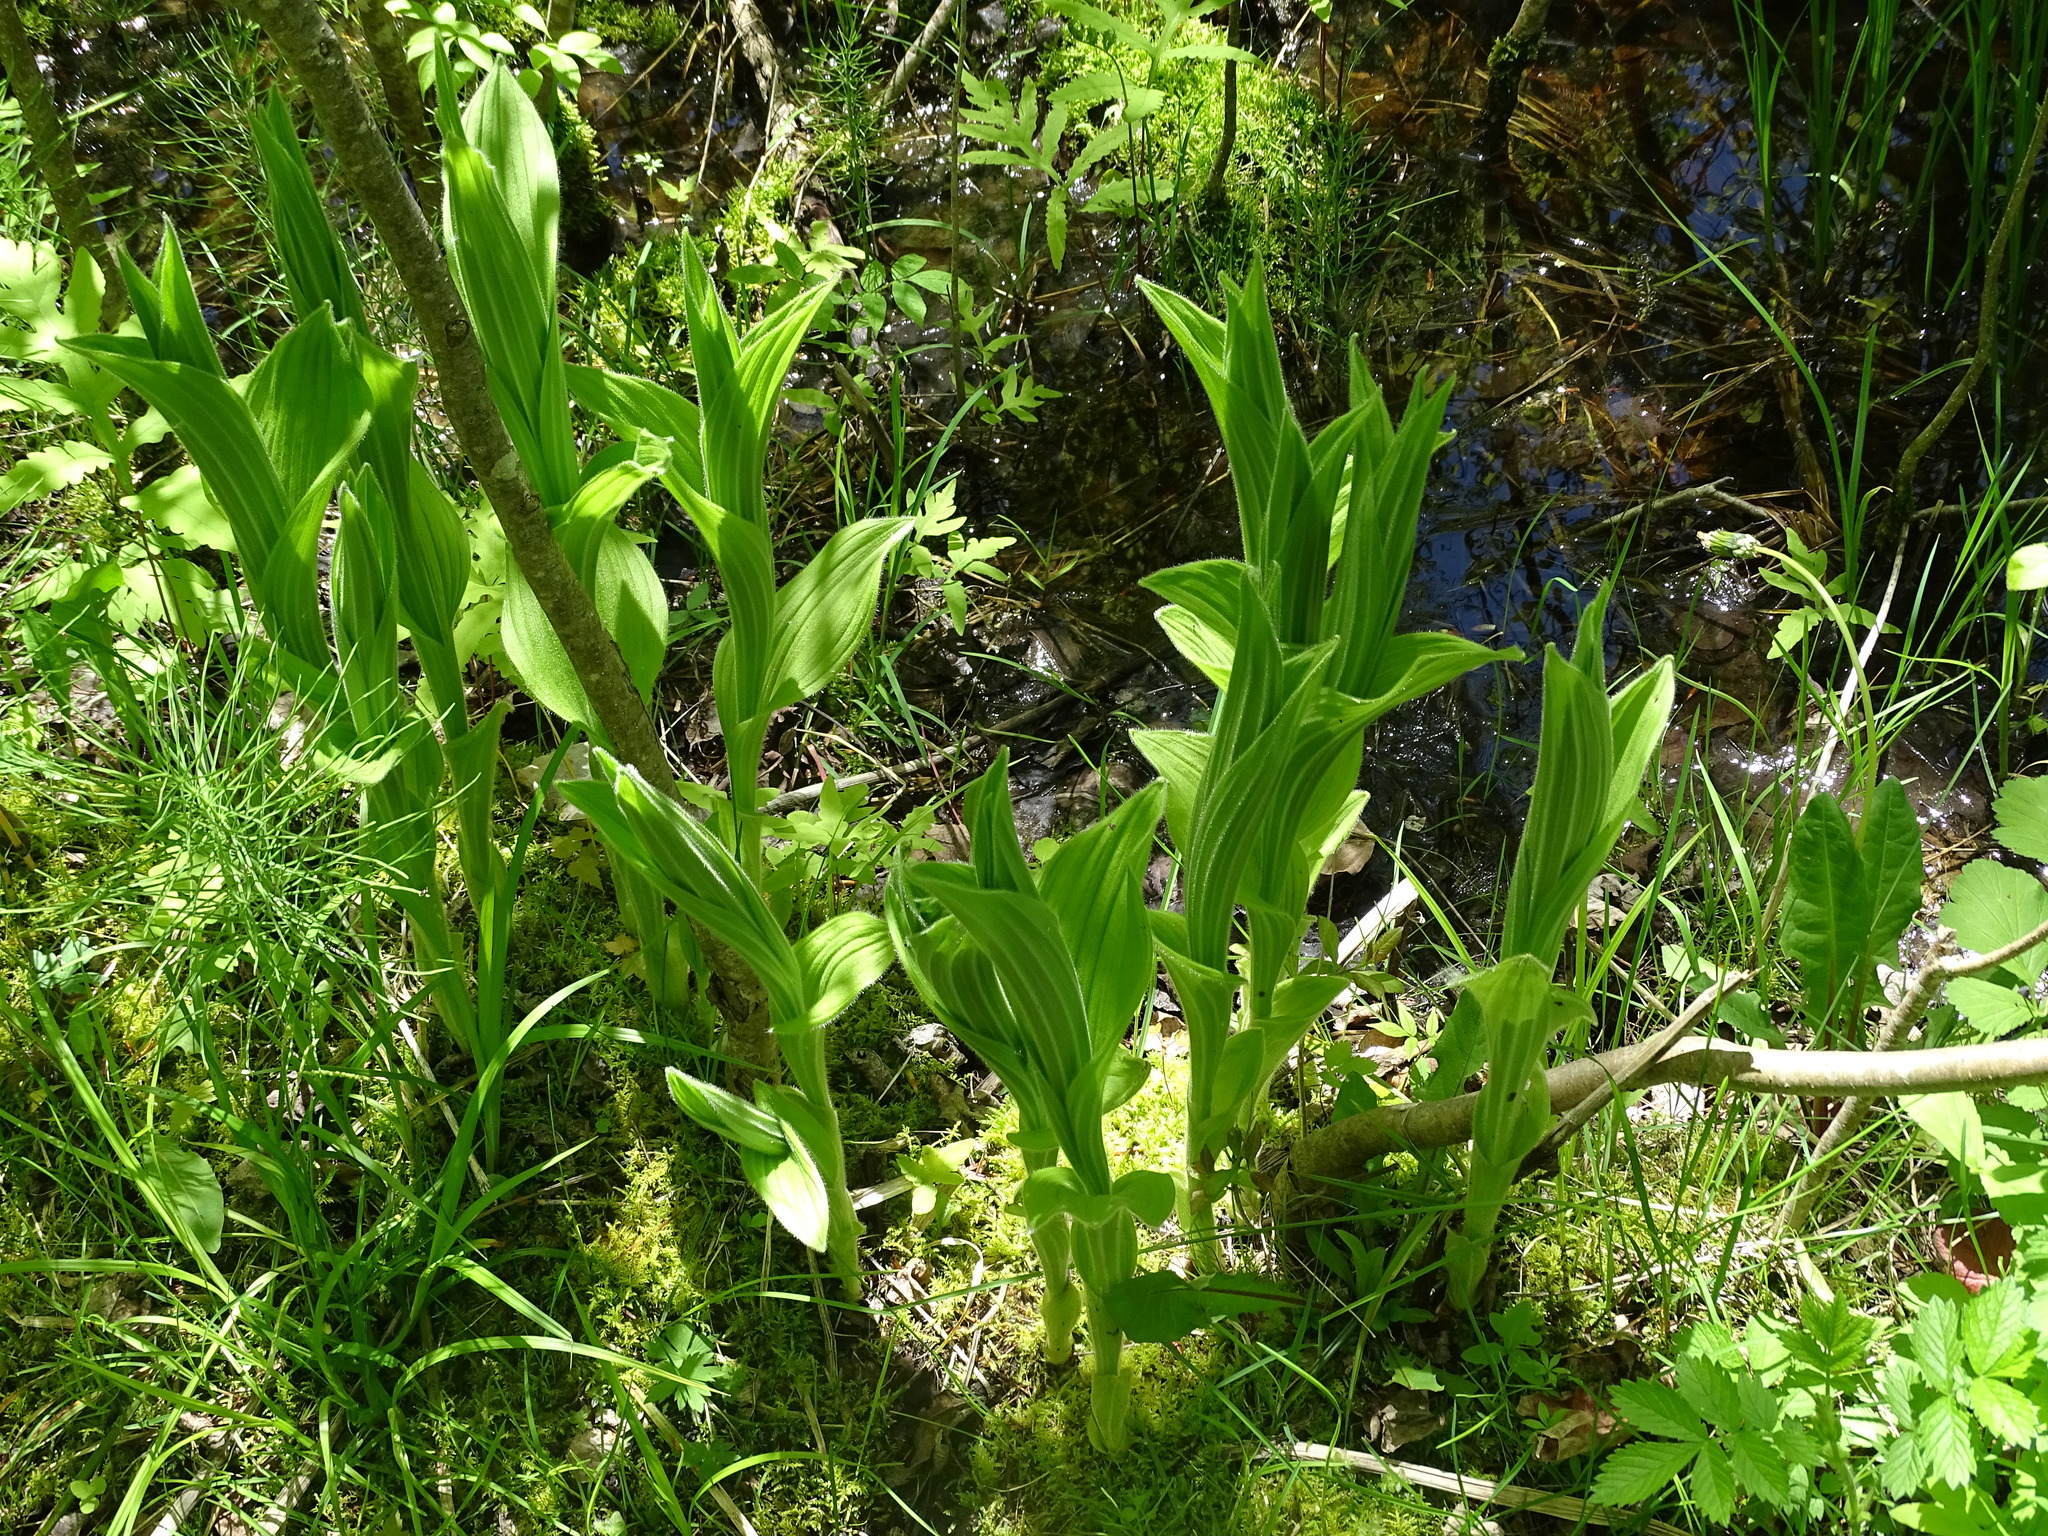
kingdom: Plantae
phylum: Tracheophyta
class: Liliopsida
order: Asparagales
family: Orchidaceae
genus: Cypripedium
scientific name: Cypripedium reginae
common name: Queen lady's-slipper
